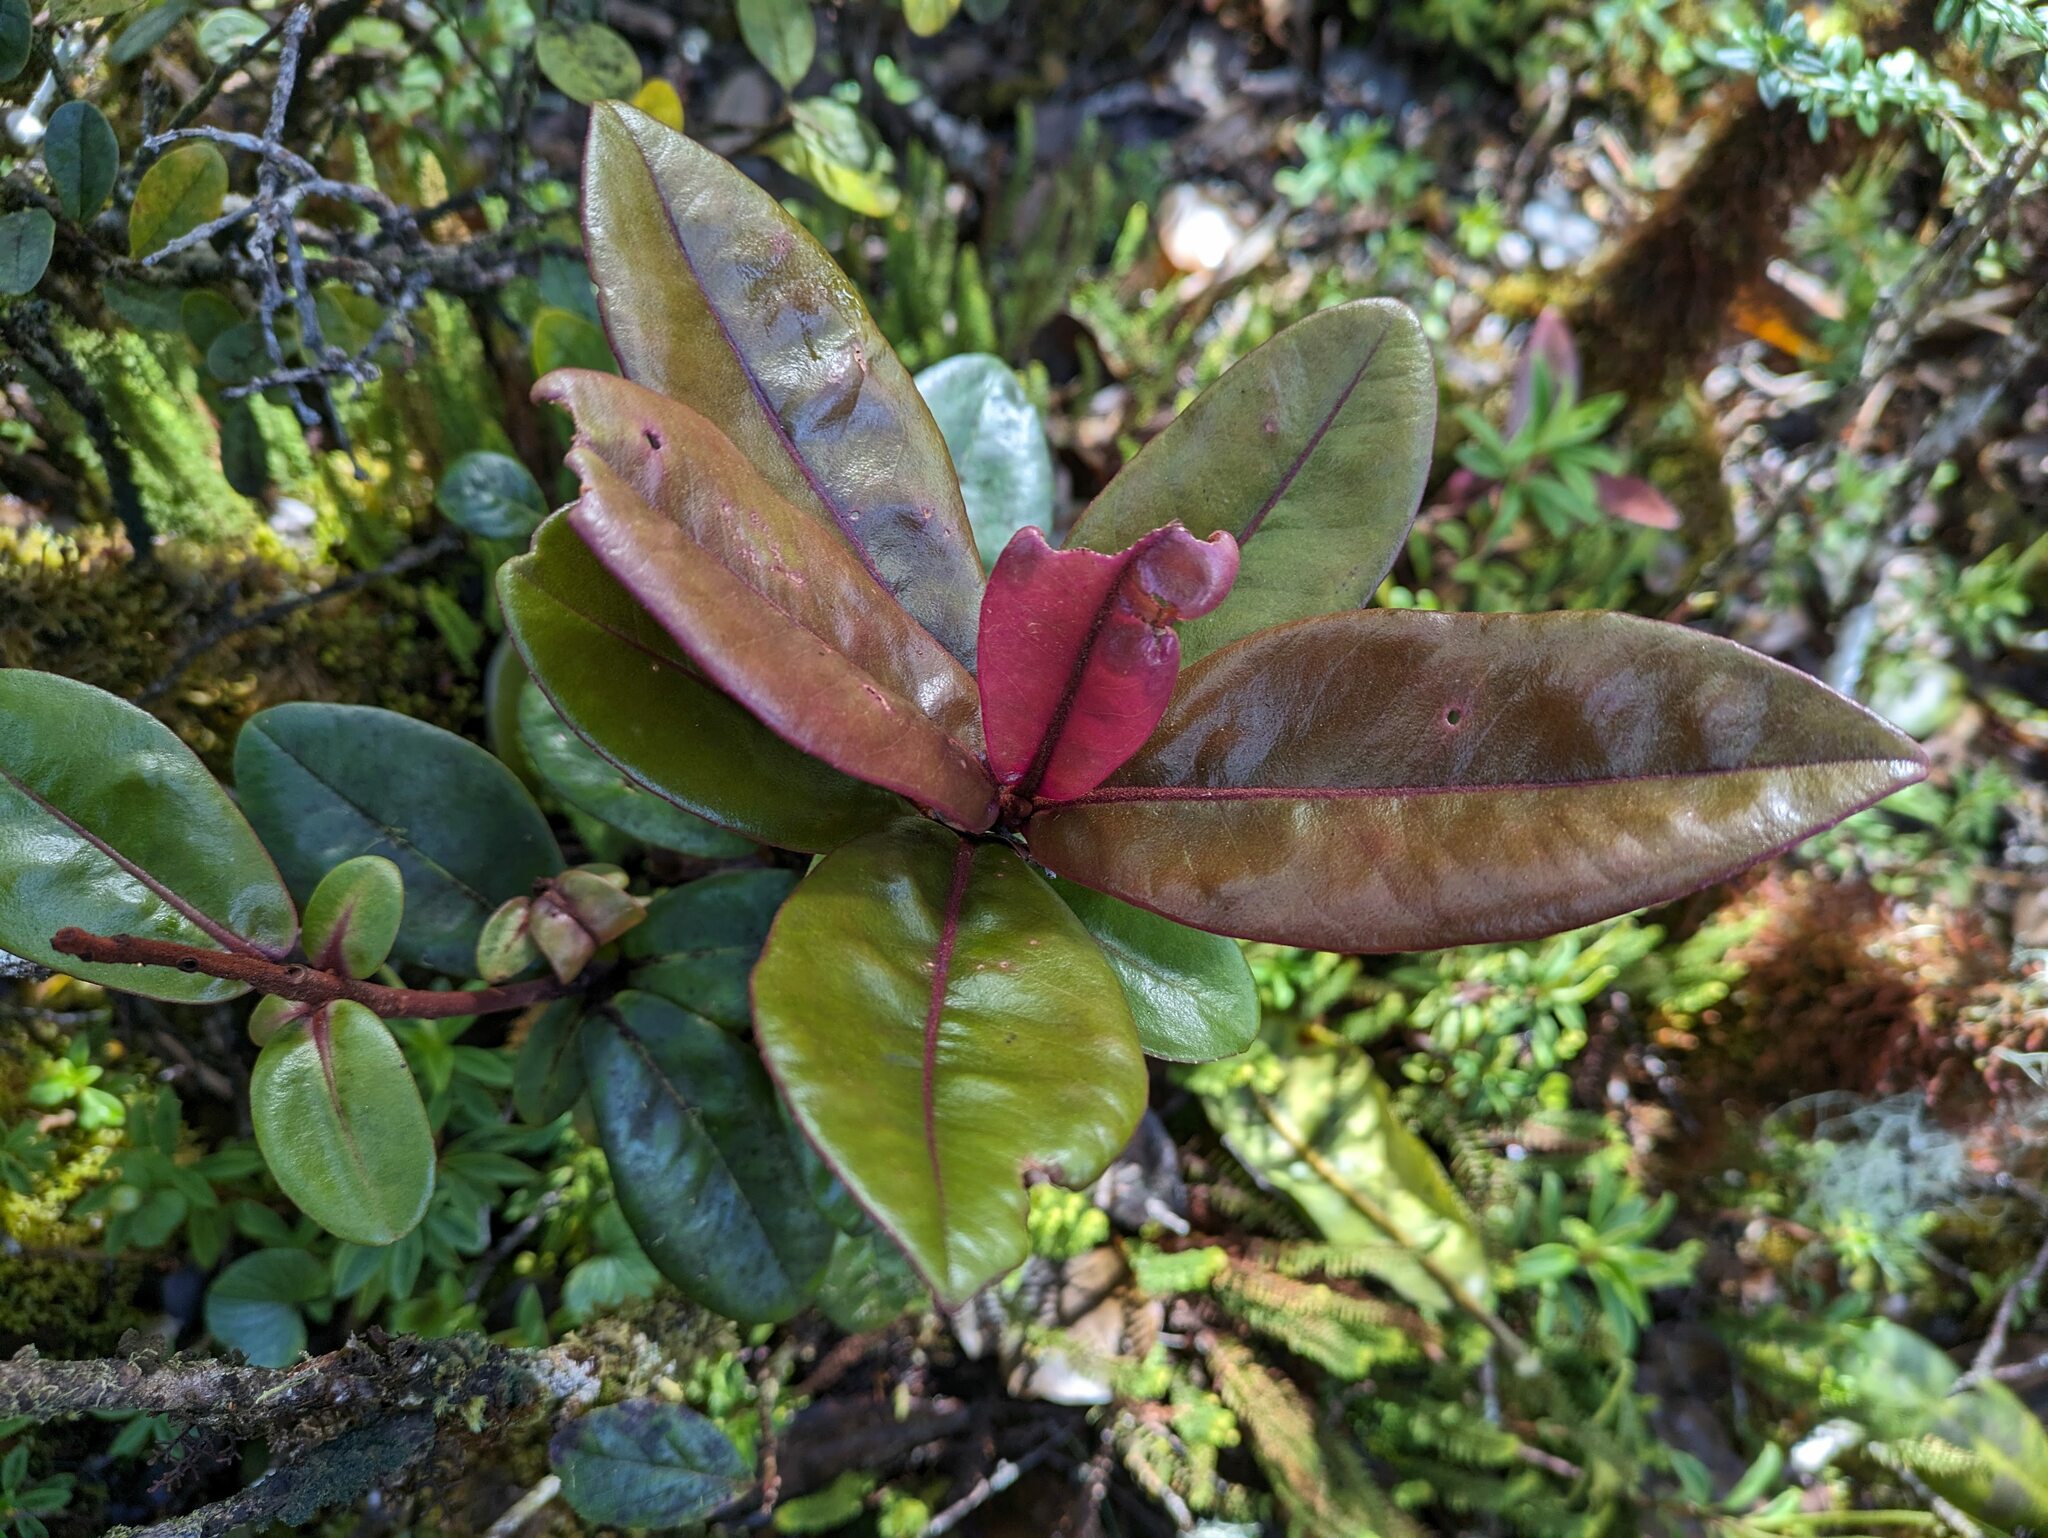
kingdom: Plantae
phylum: Tracheophyta
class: Magnoliopsida
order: Ericales
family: Primulaceae
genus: Myrsine
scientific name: Myrsine wawraea
